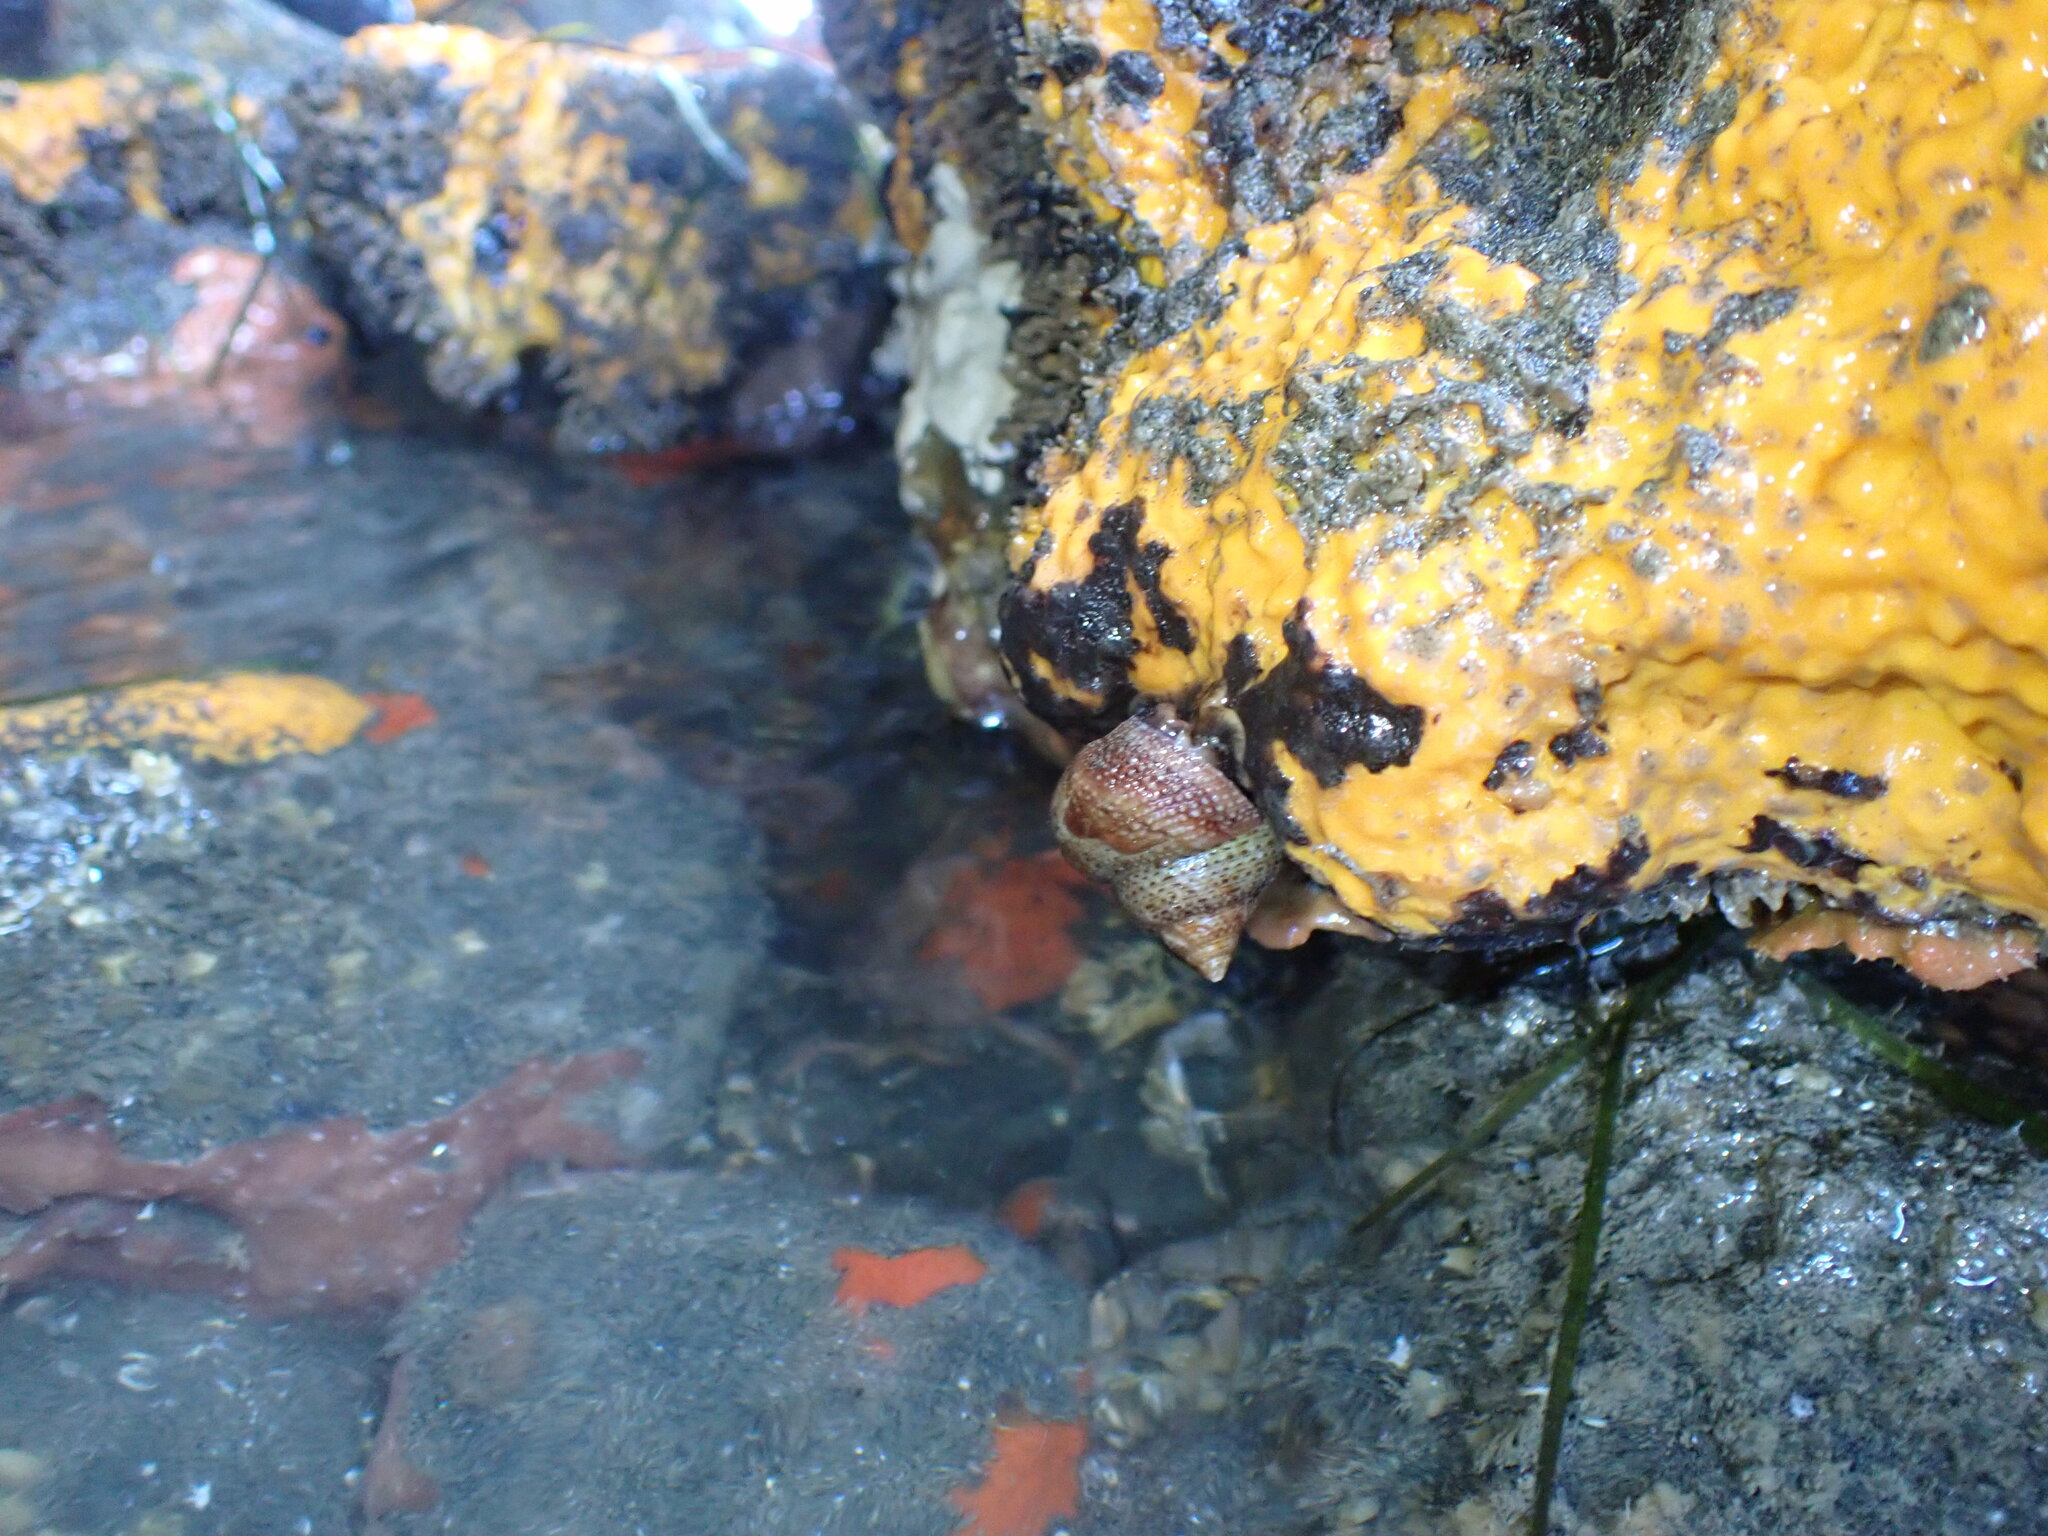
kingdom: Animalia
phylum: Mollusca
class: Gastropoda
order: Trochida
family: Calliostomatidae
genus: Maurea
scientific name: Maurea punctulata
